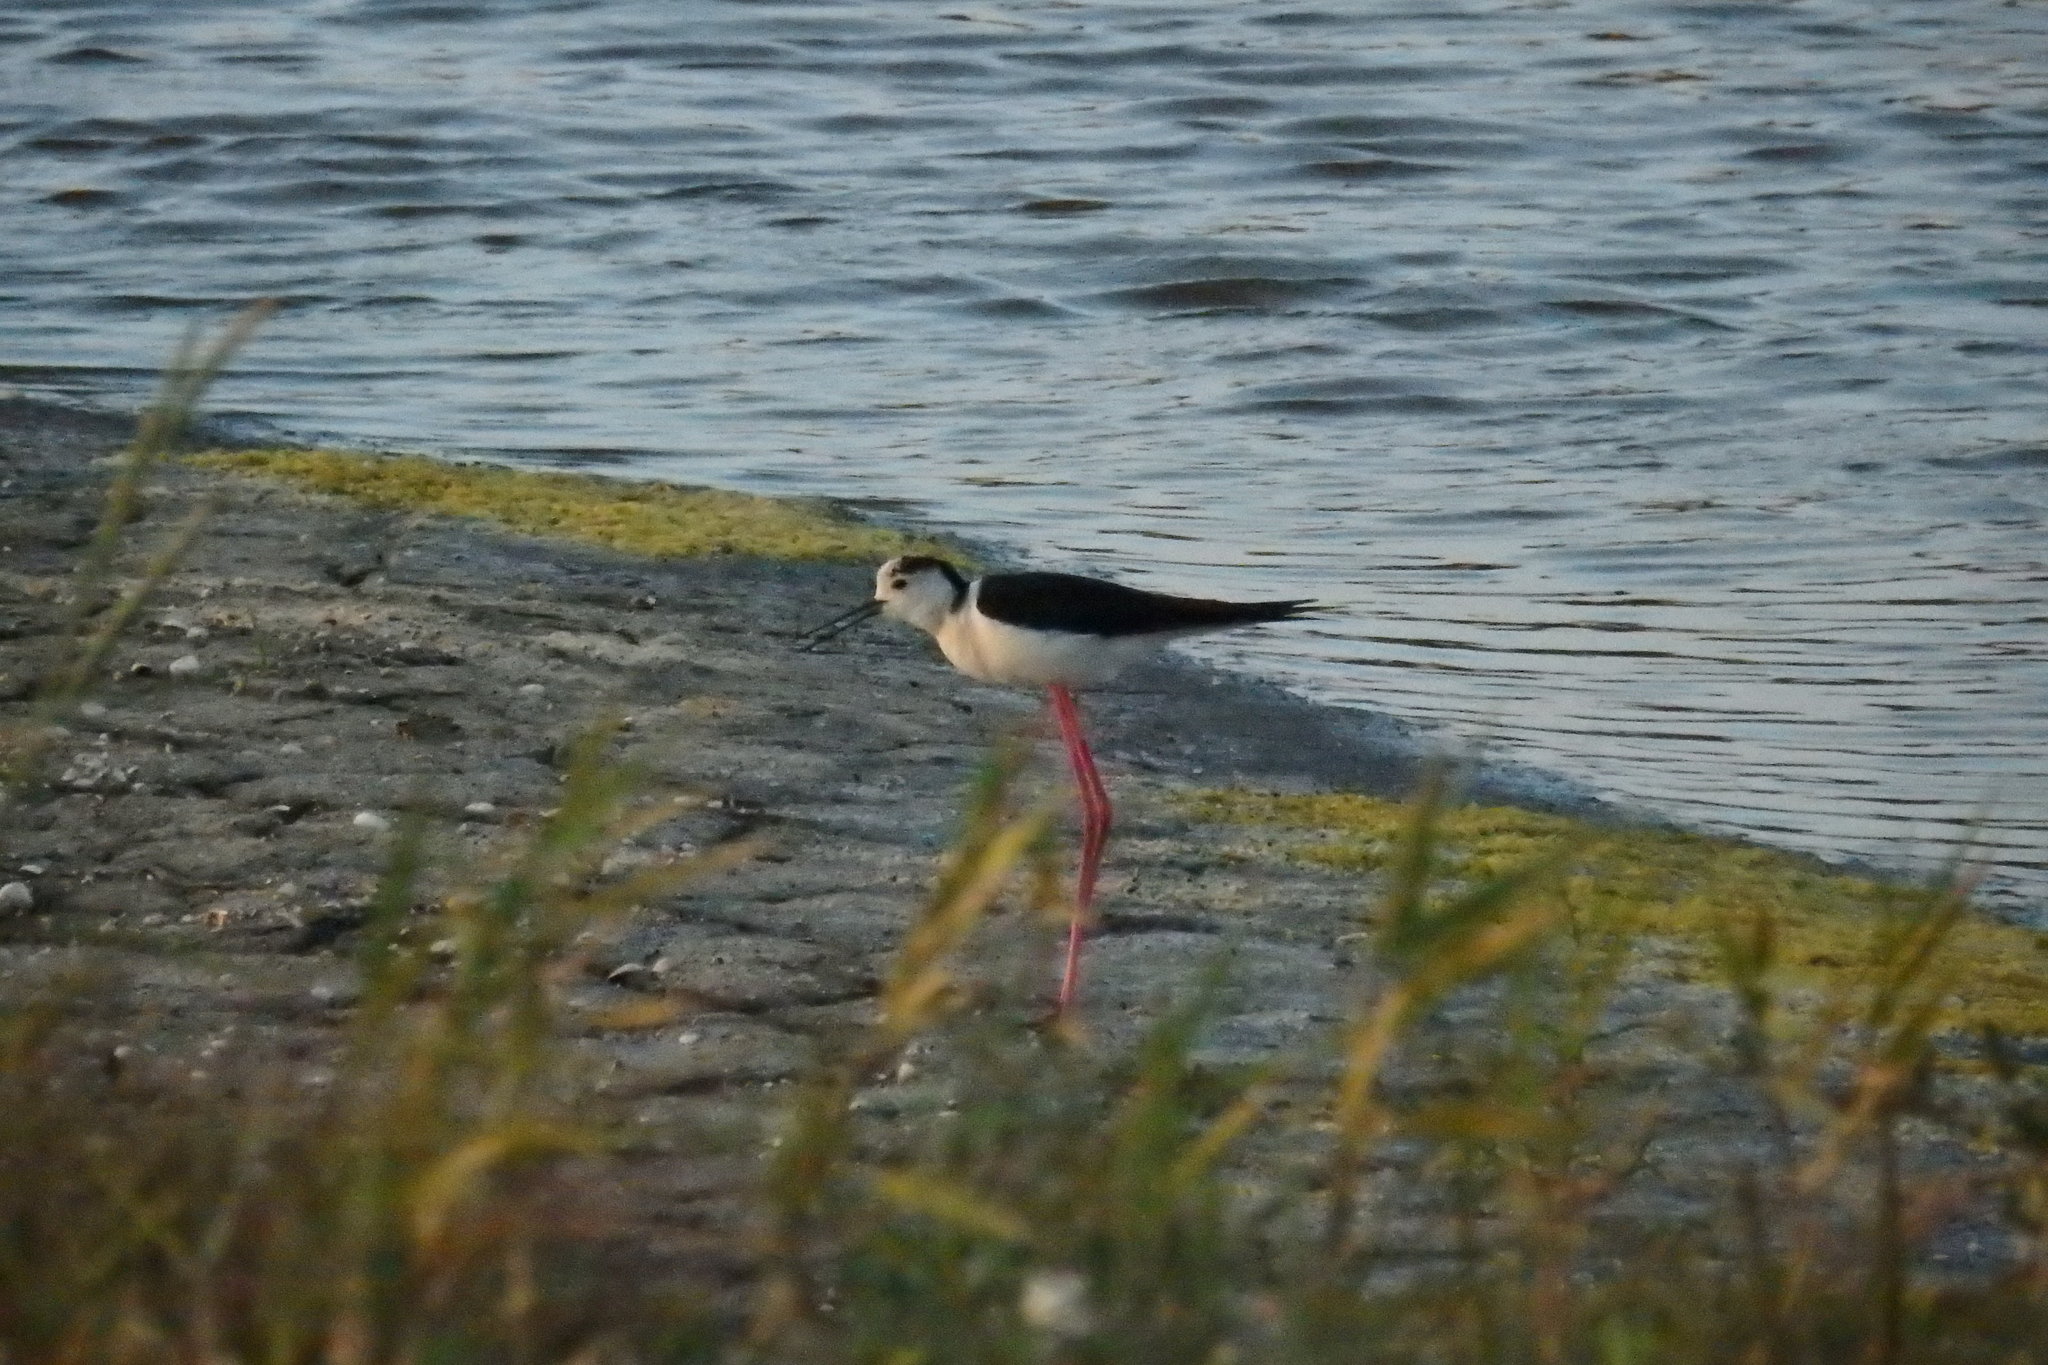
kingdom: Animalia
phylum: Chordata
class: Aves
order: Charadriiformes
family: Recurvirostridae
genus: Himantopus
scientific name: Himantopus himantopus
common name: Black-winged stilt
